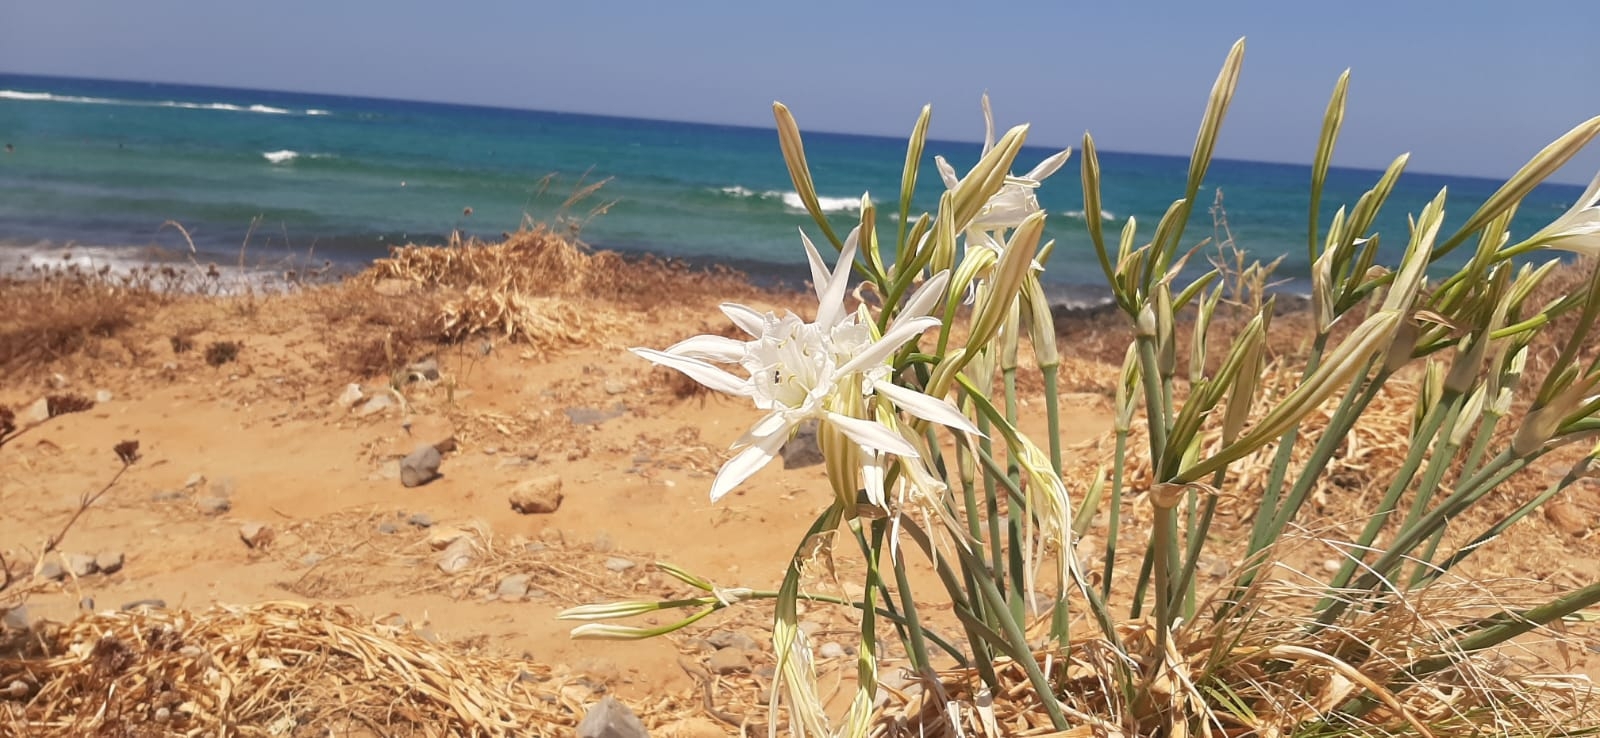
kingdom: Plantae
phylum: Tracheophyta
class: Liliopsida
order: Asparagales
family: Amaryllidaceae
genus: Pancratium
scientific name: Pancratium maritimum
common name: Sea-daffodil
